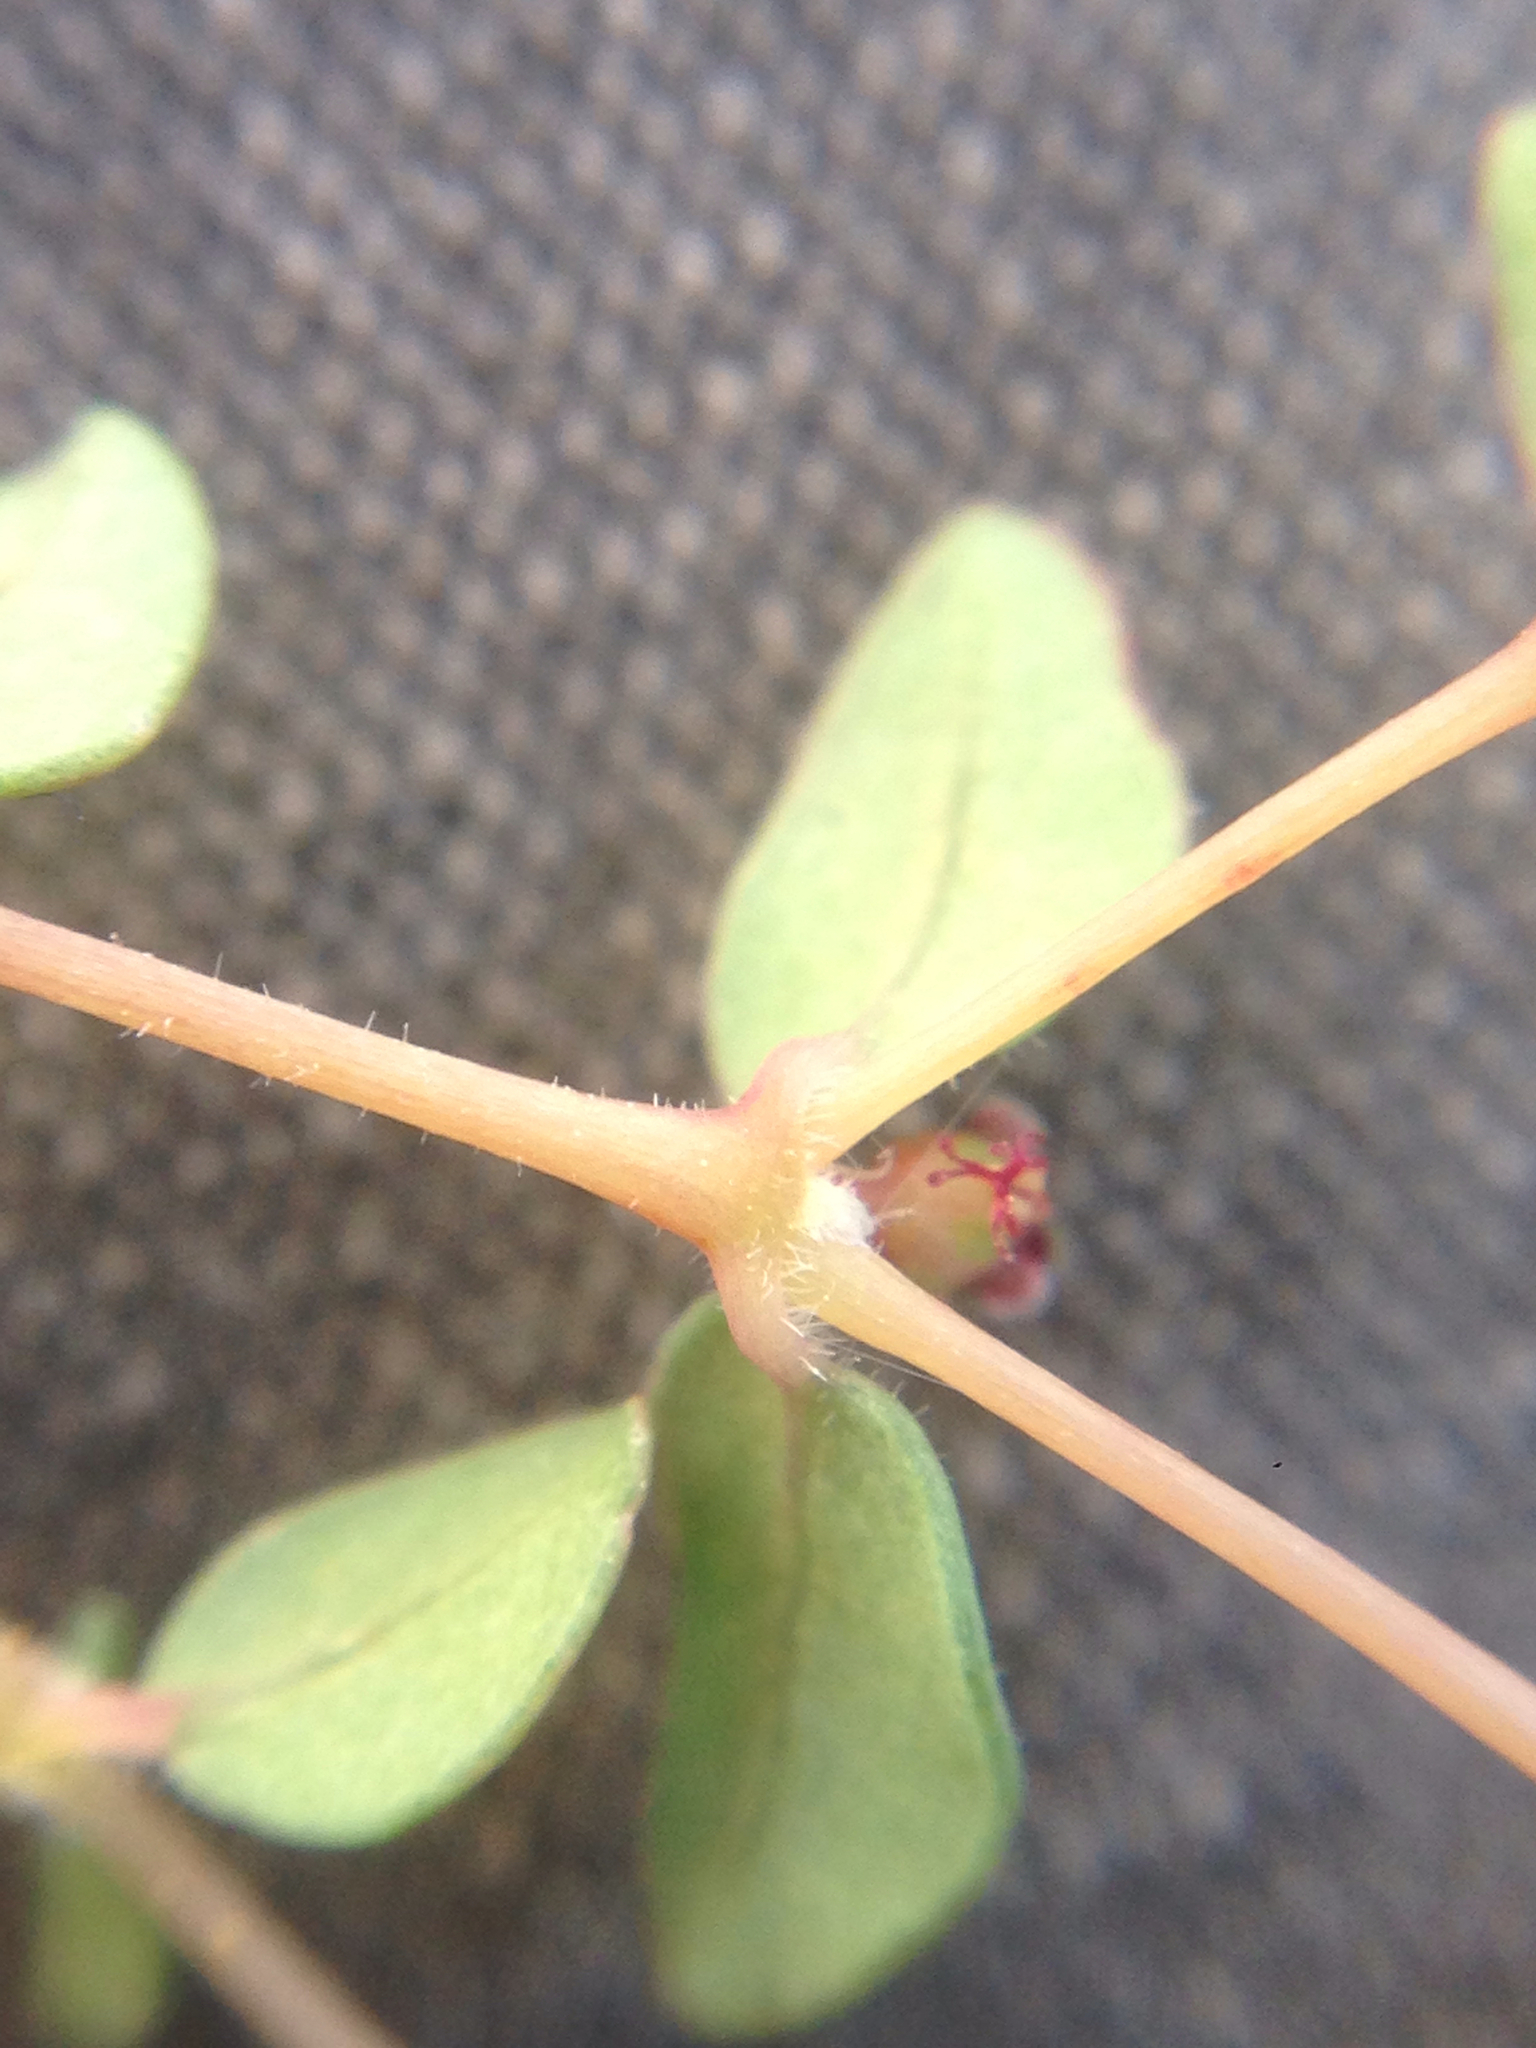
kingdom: Plantae
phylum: Tracheophyta
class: Magnoliopsida
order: Malpighiales
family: Euphorbiaceae
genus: Euphorbia
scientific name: Euphorbia polycarpa
